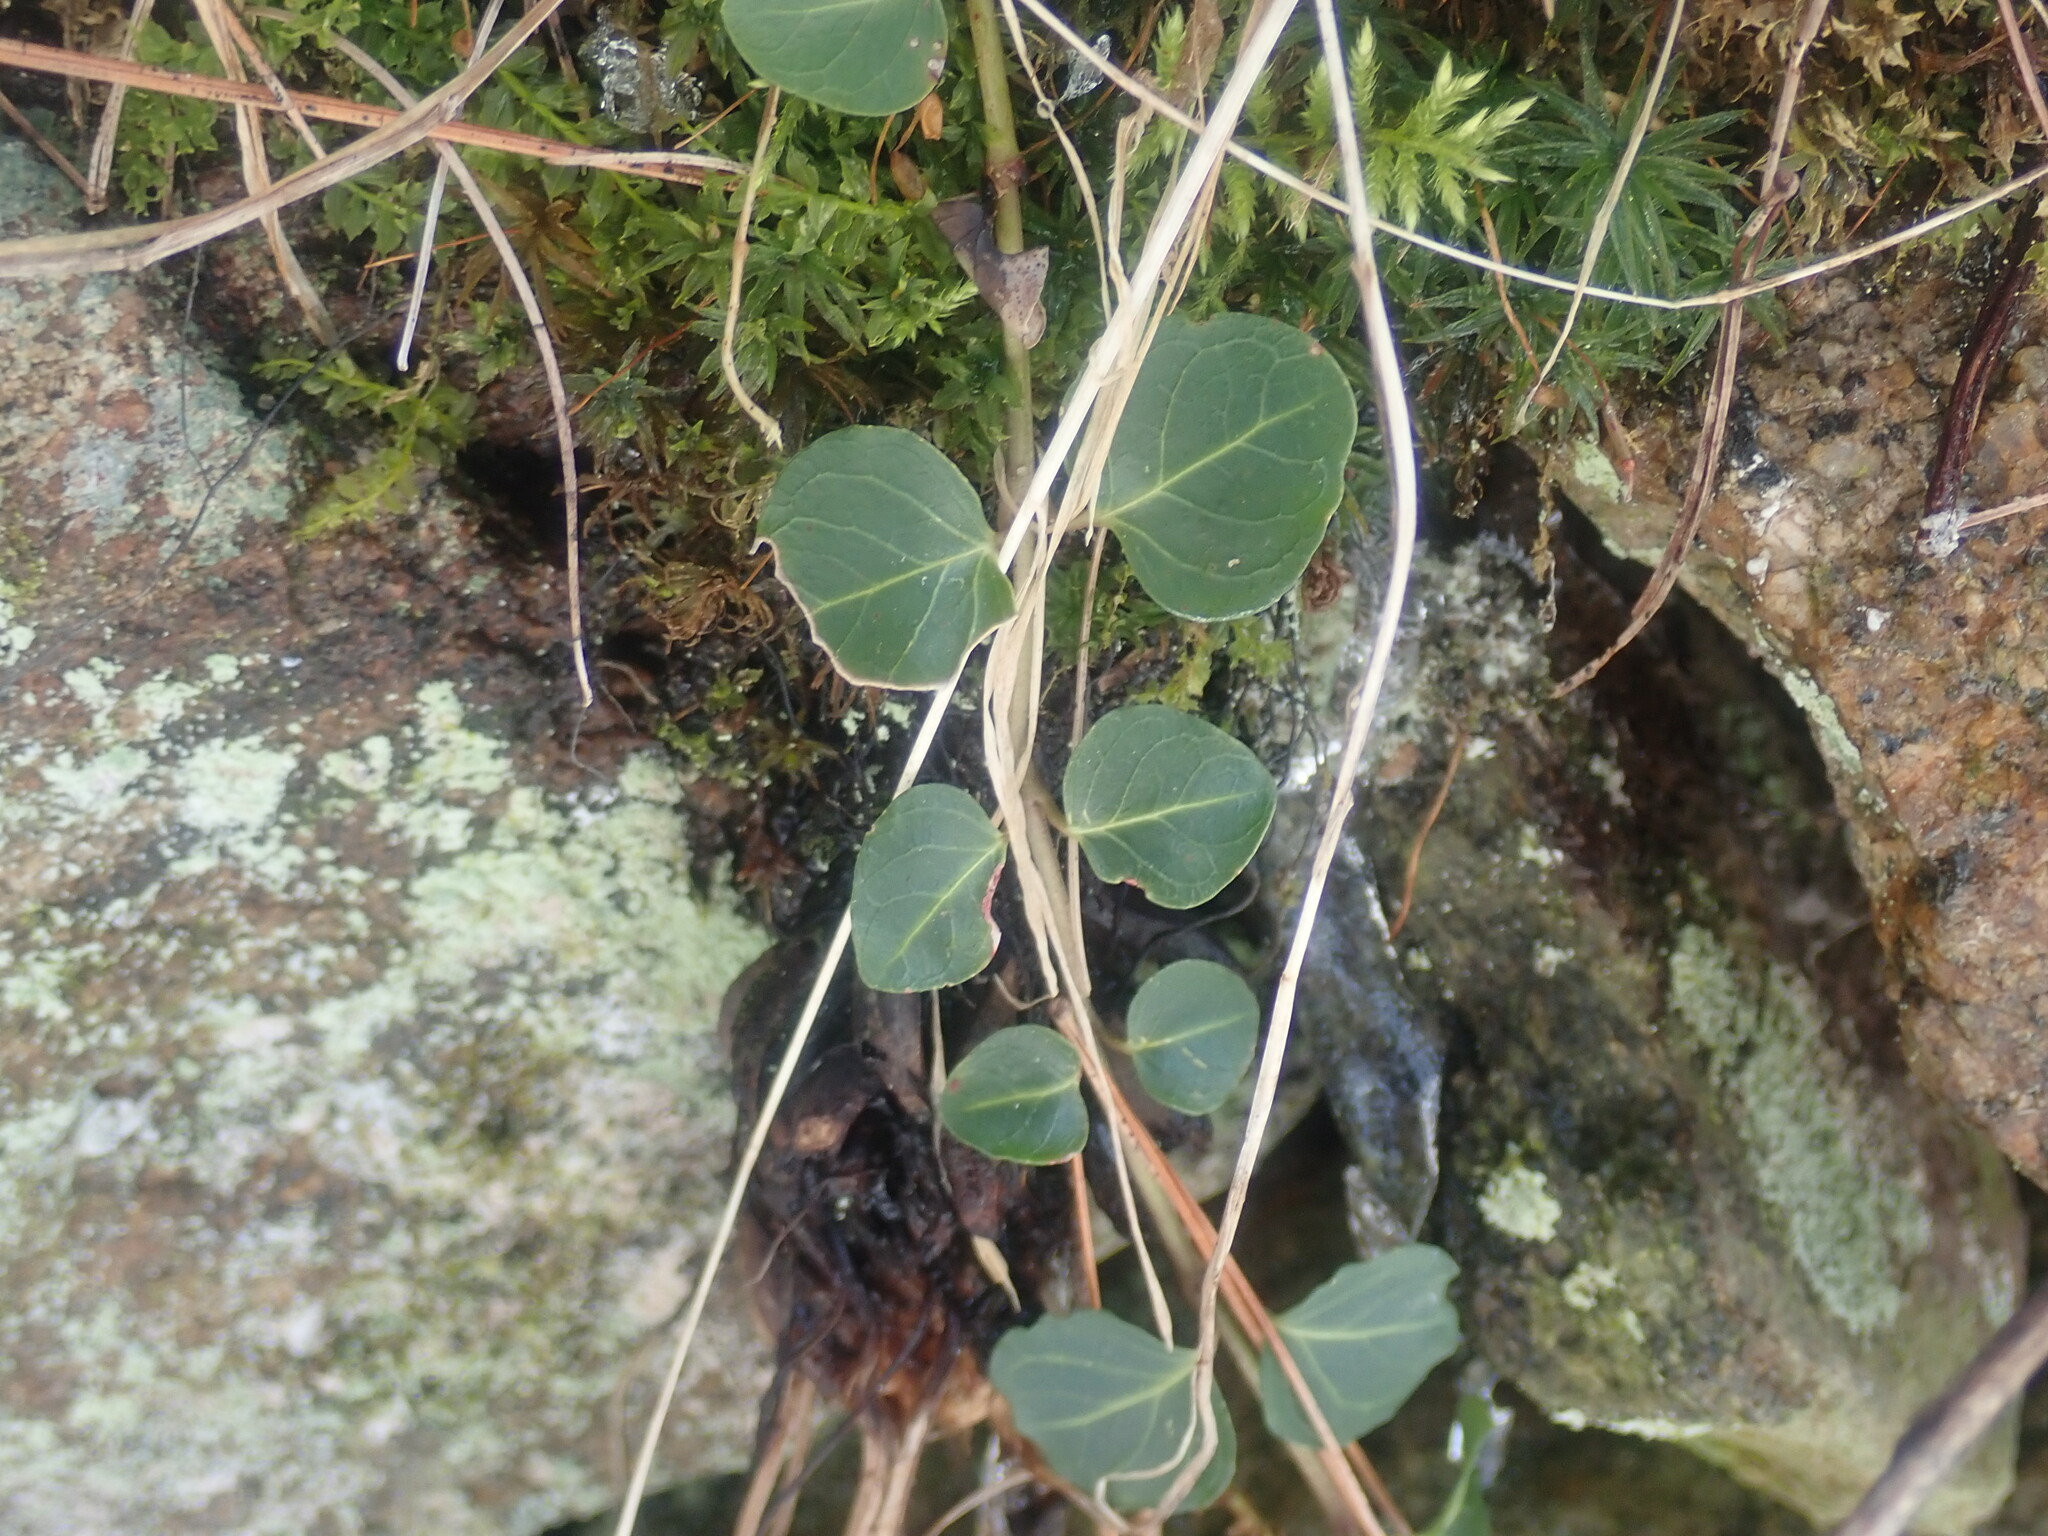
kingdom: Plantae
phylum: Tracheophyta
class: Magnoliopsida
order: Gentianales
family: Rubiaceae
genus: Mitchella
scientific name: Mitchella repens
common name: Partridge-berry
